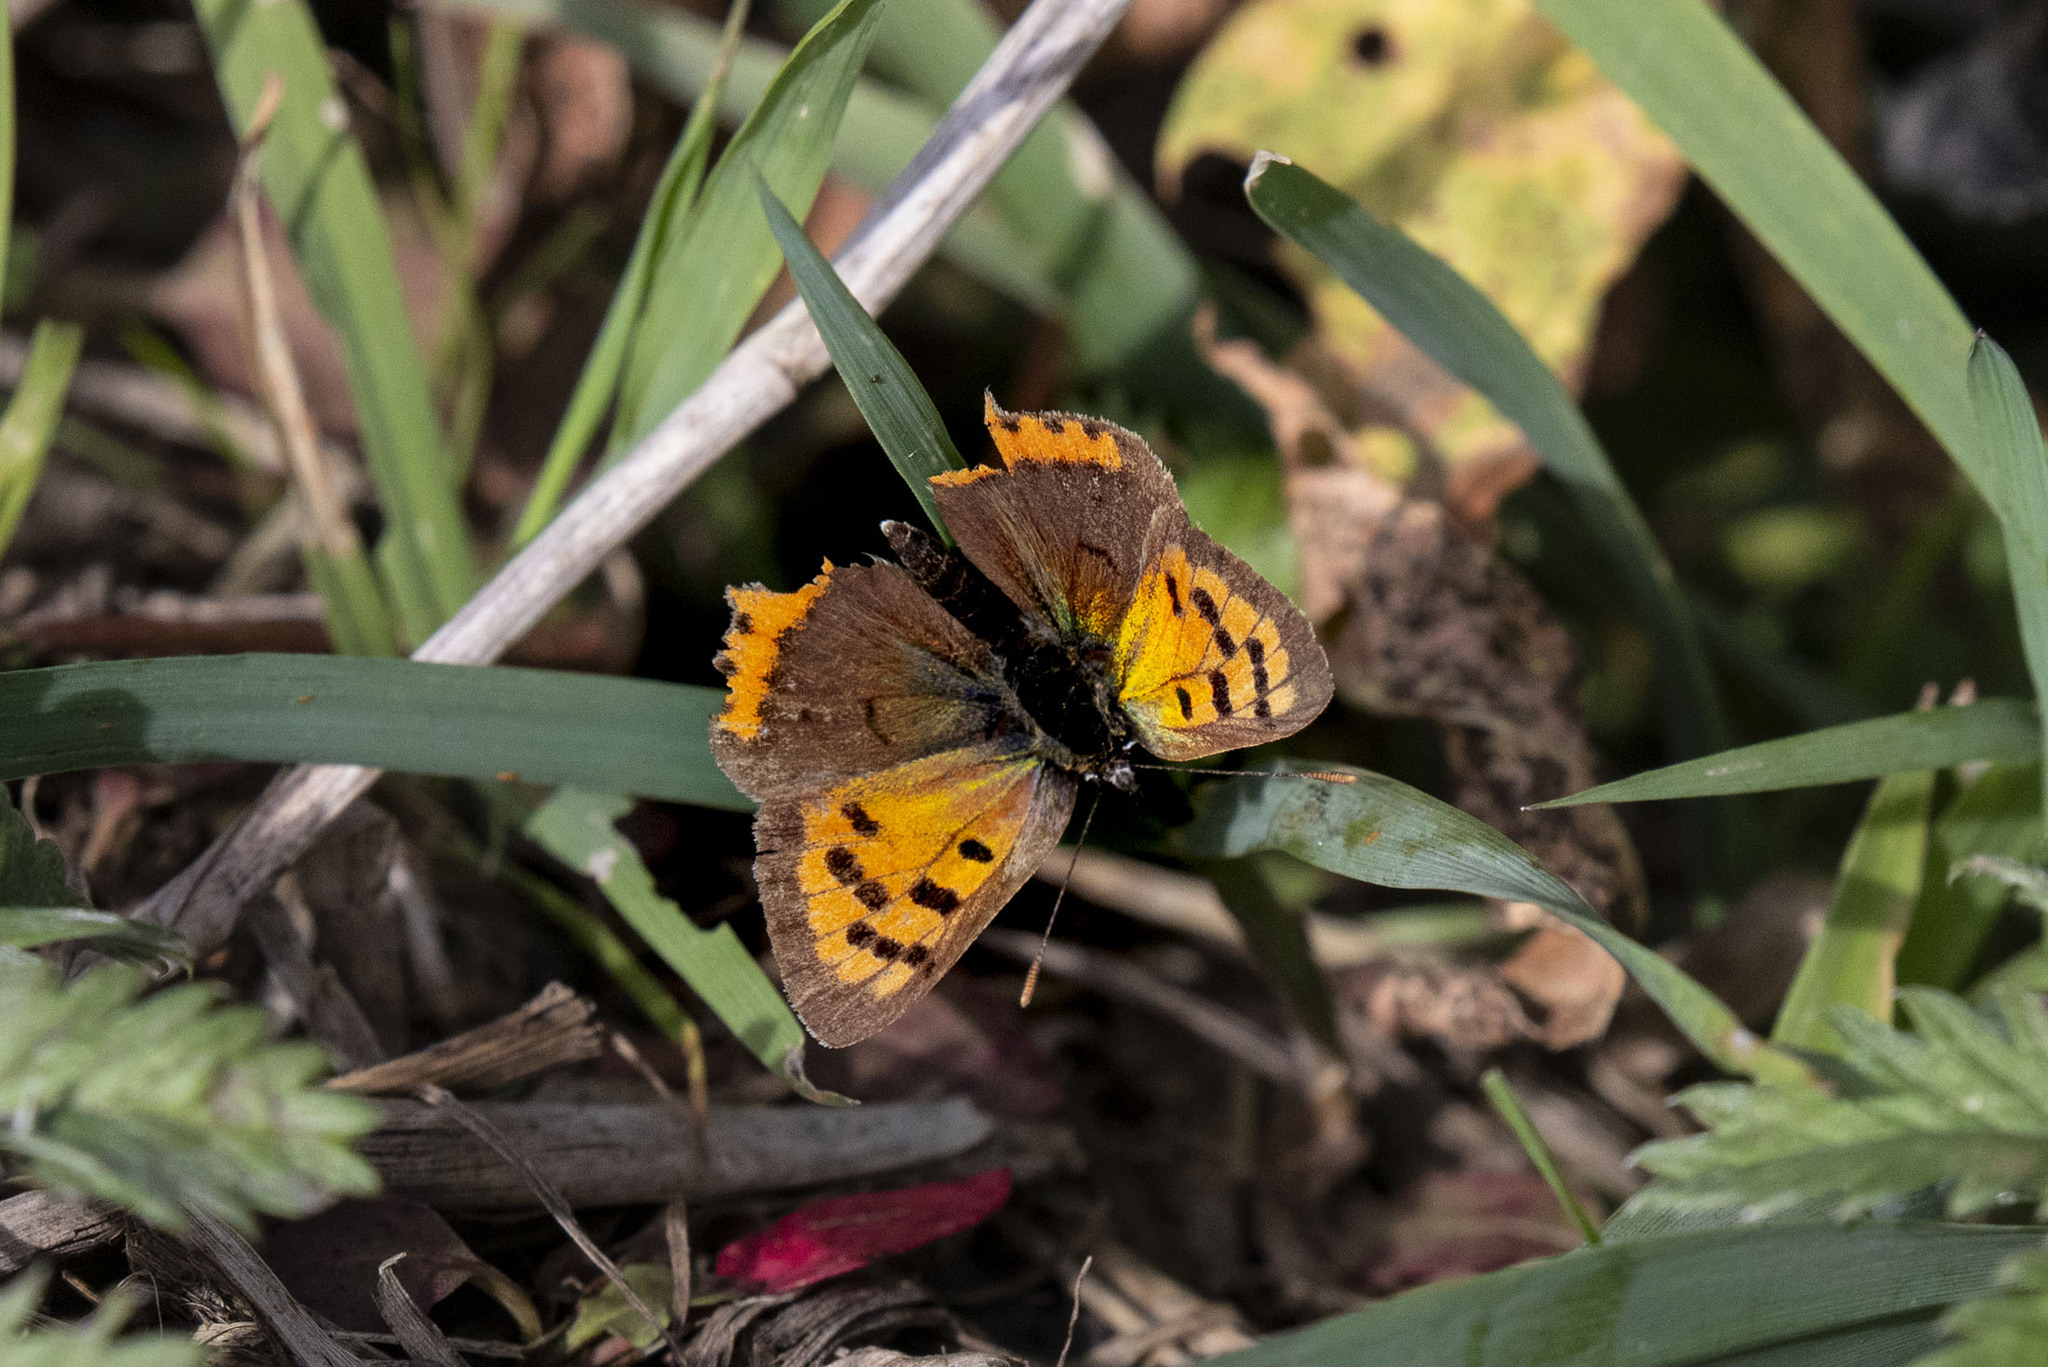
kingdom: Animalia
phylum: Arthropoda
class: Insecta
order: Lepidoptera
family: Lycaenidae
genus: Lycaena
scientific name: Lycaena phlaeas
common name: Small copper
